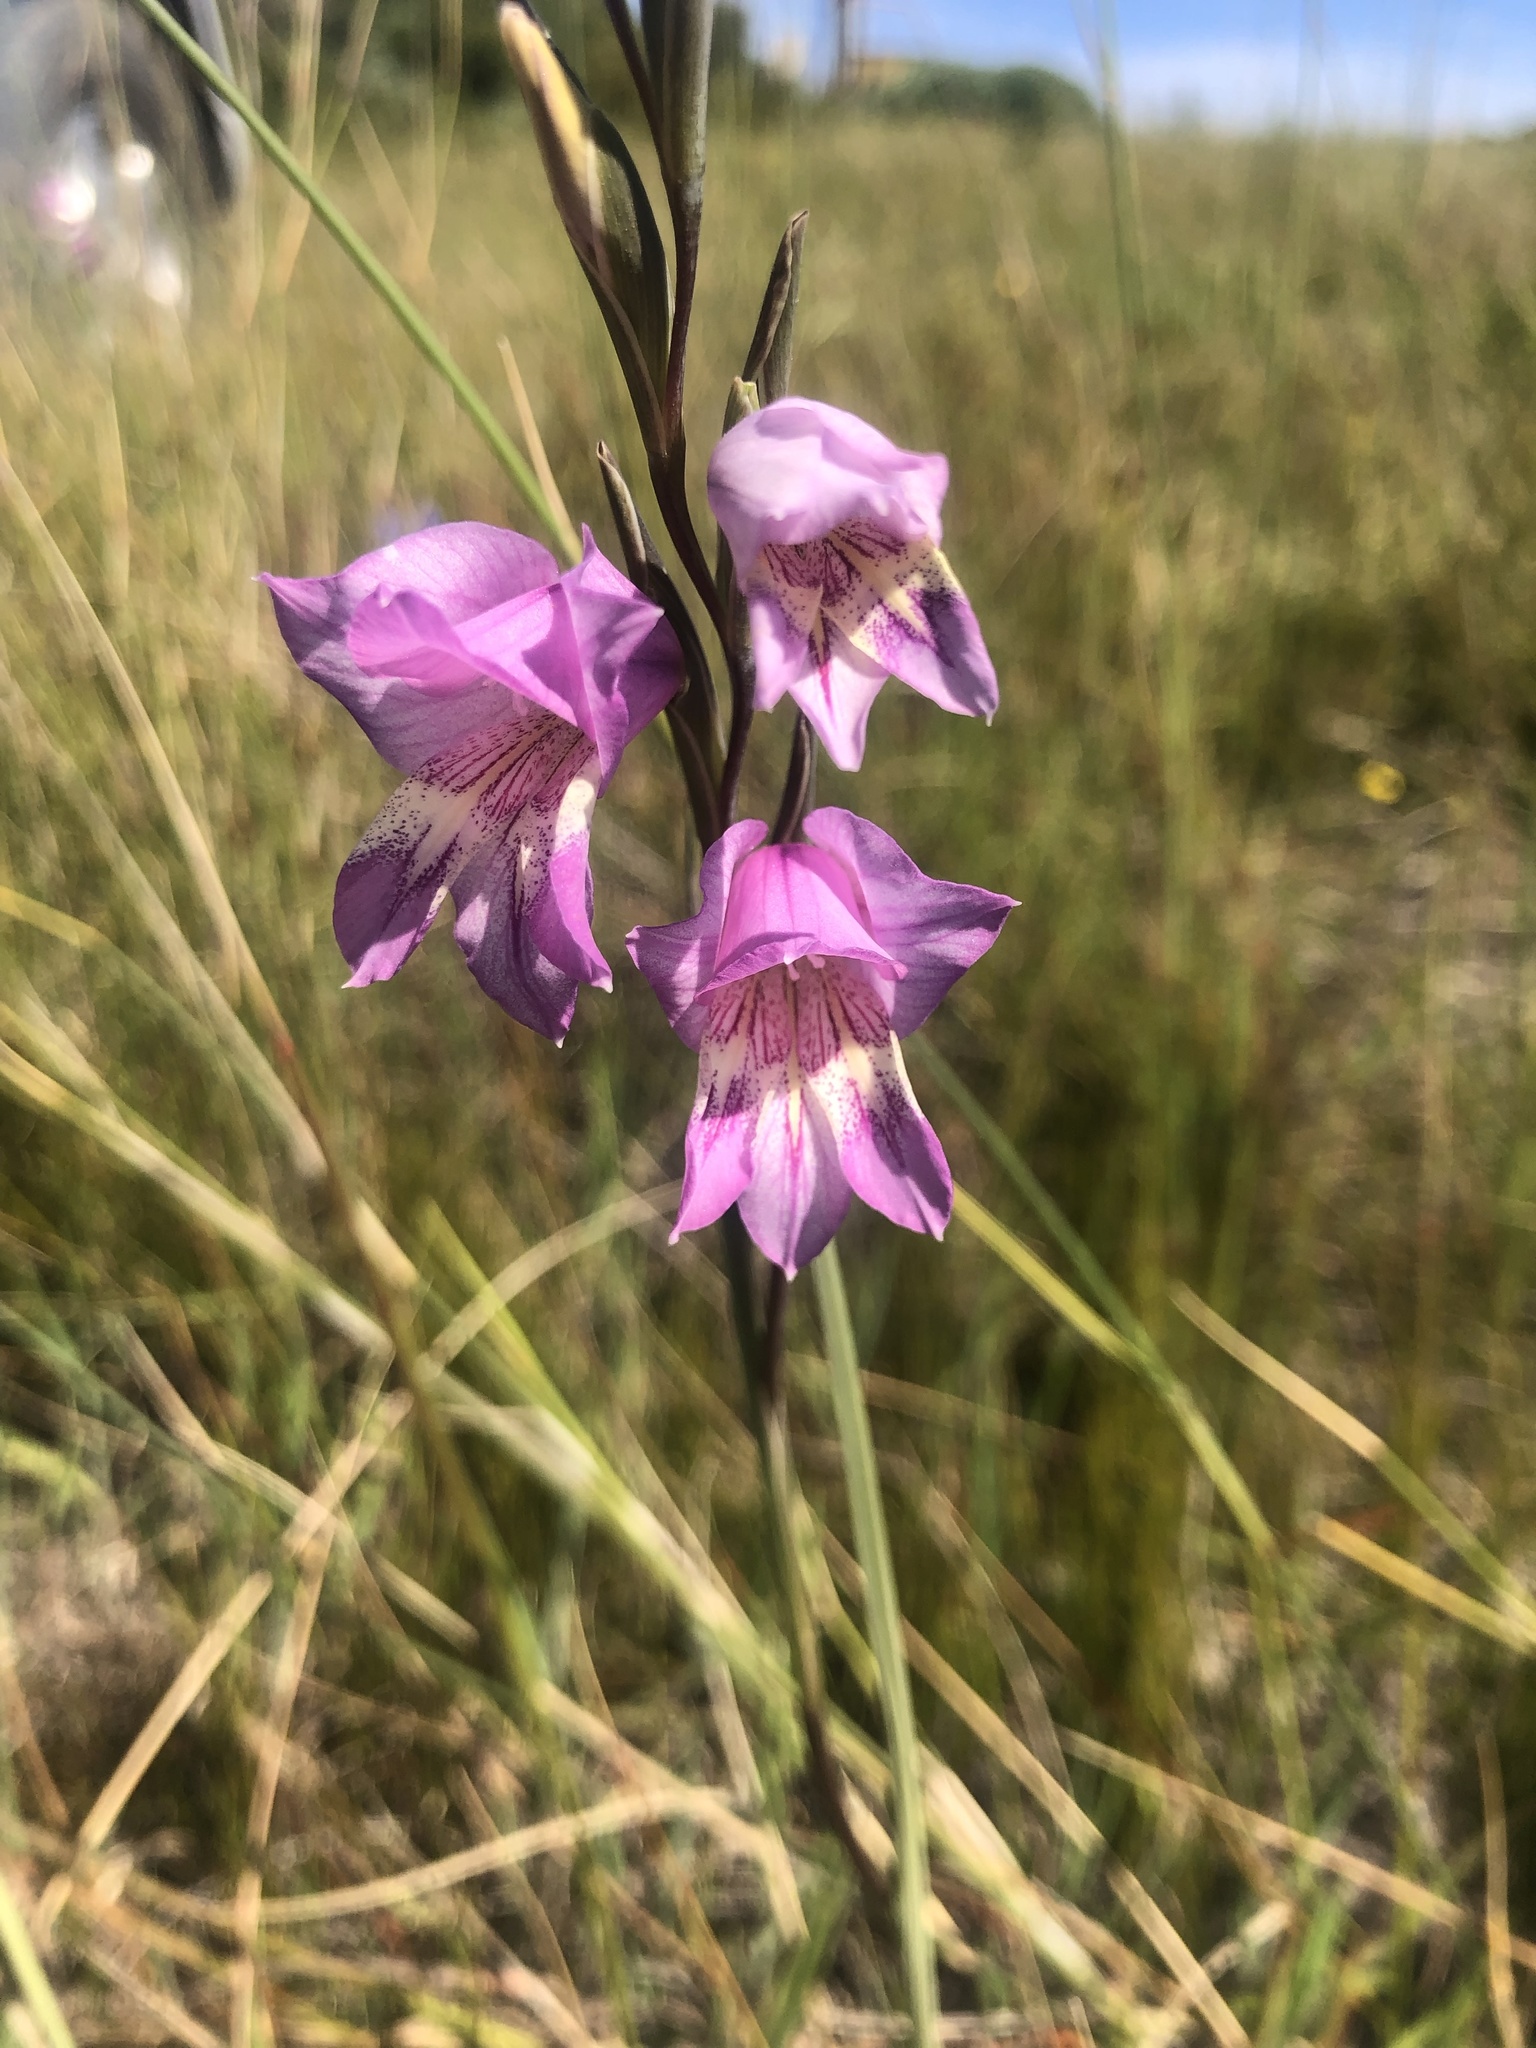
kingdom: Plantae
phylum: Tracheophyta
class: Liliopsida
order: Asparagales
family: Iridaceae
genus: Gladiolus
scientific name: Gladiolus carinatus
